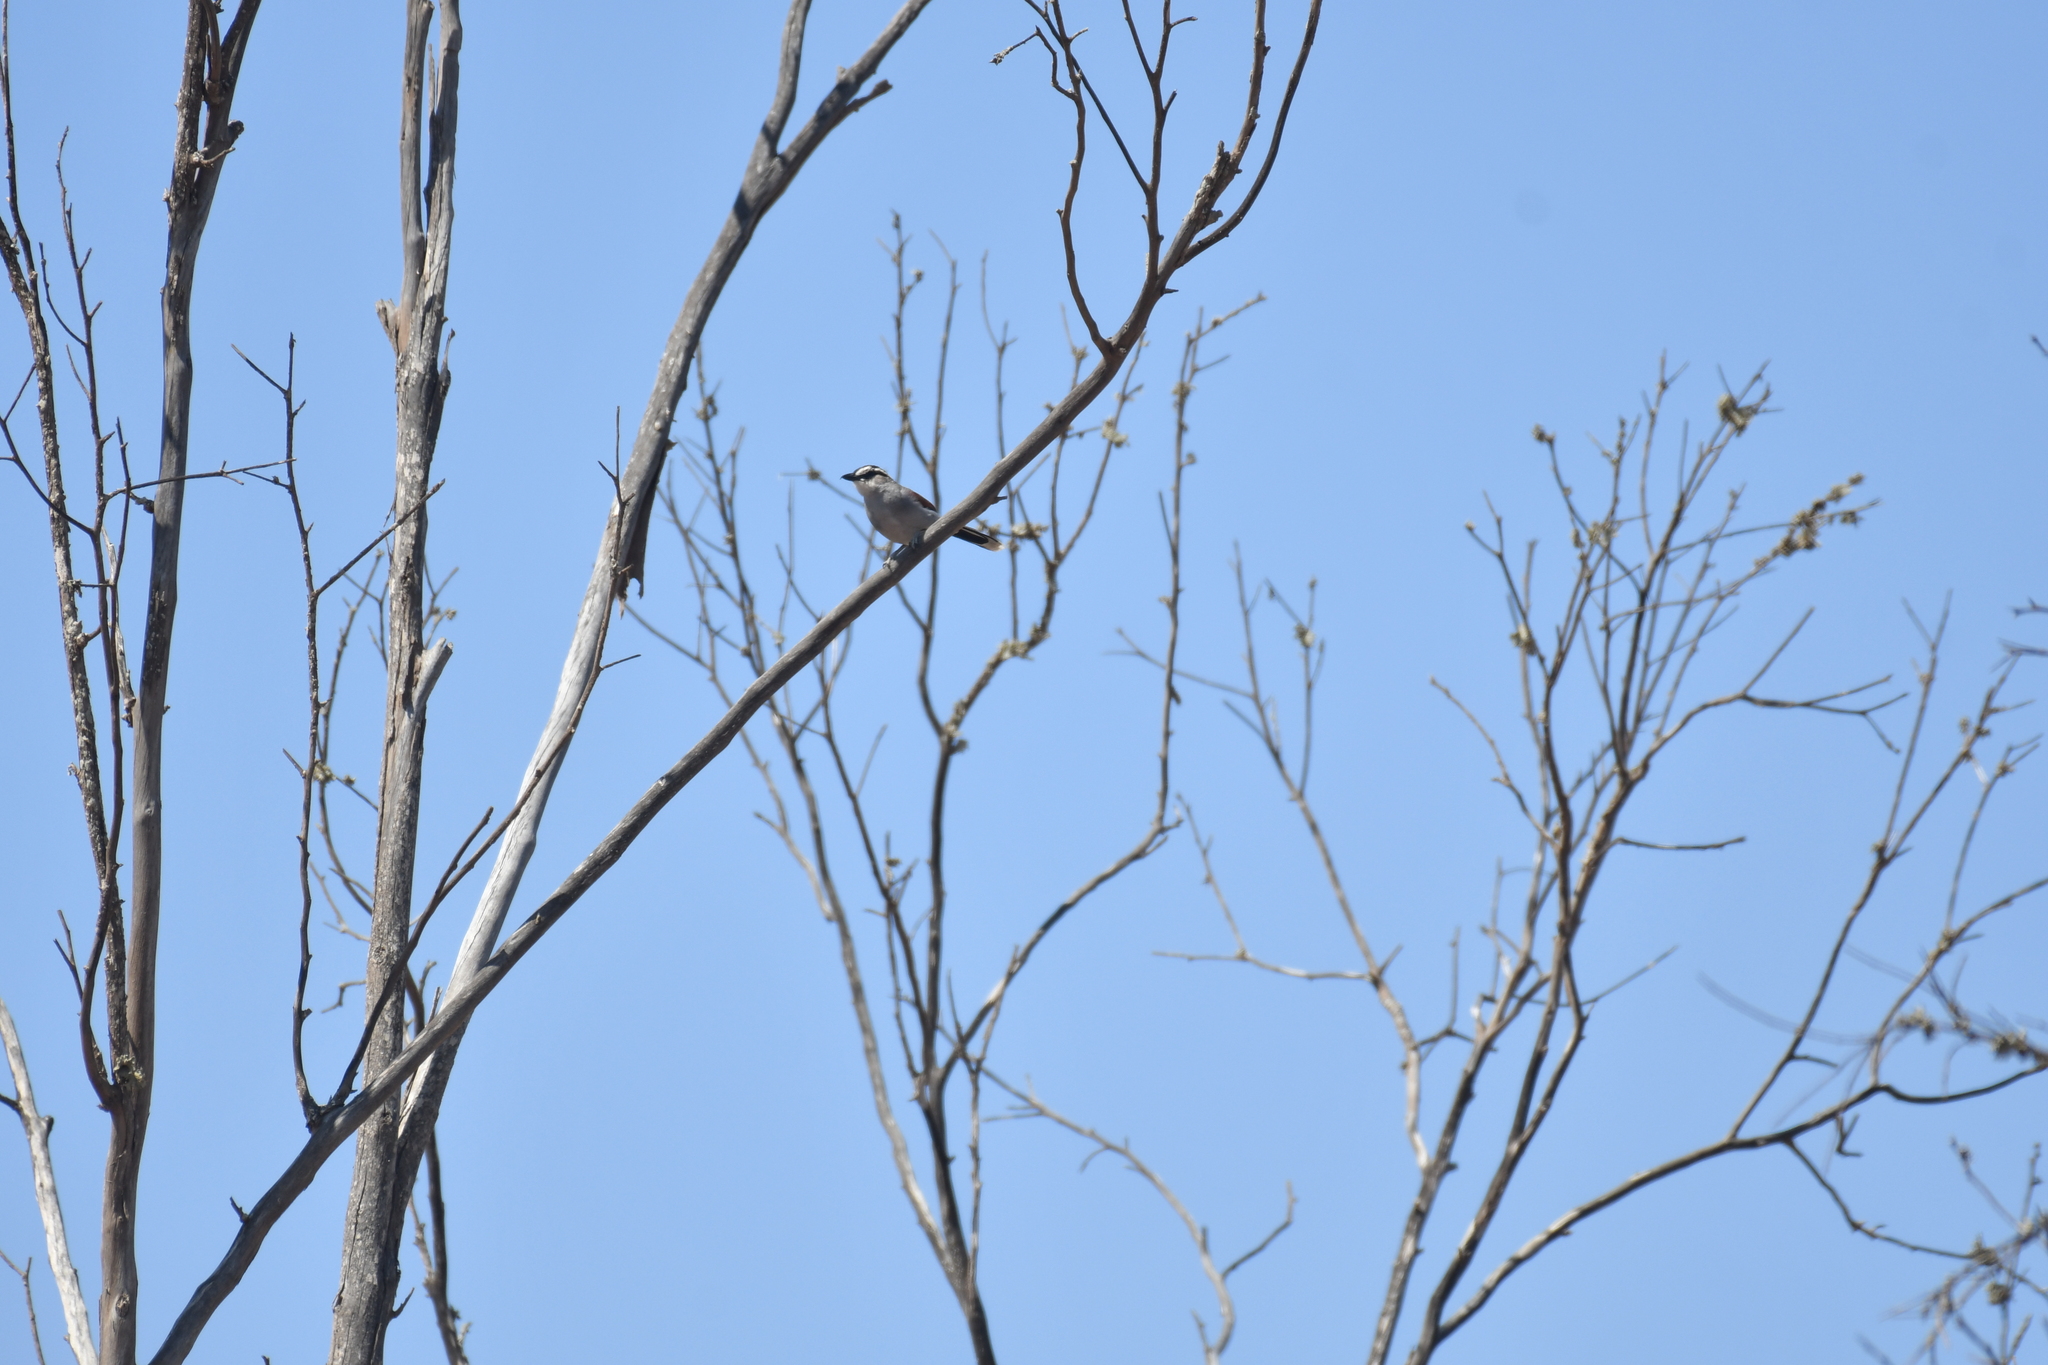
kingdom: Animalia
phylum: Chordata
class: Aves
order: Passeriformes
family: Malaconotidae
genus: Tchagra
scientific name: Tchagra senegalus
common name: Black-crowned tchagra
